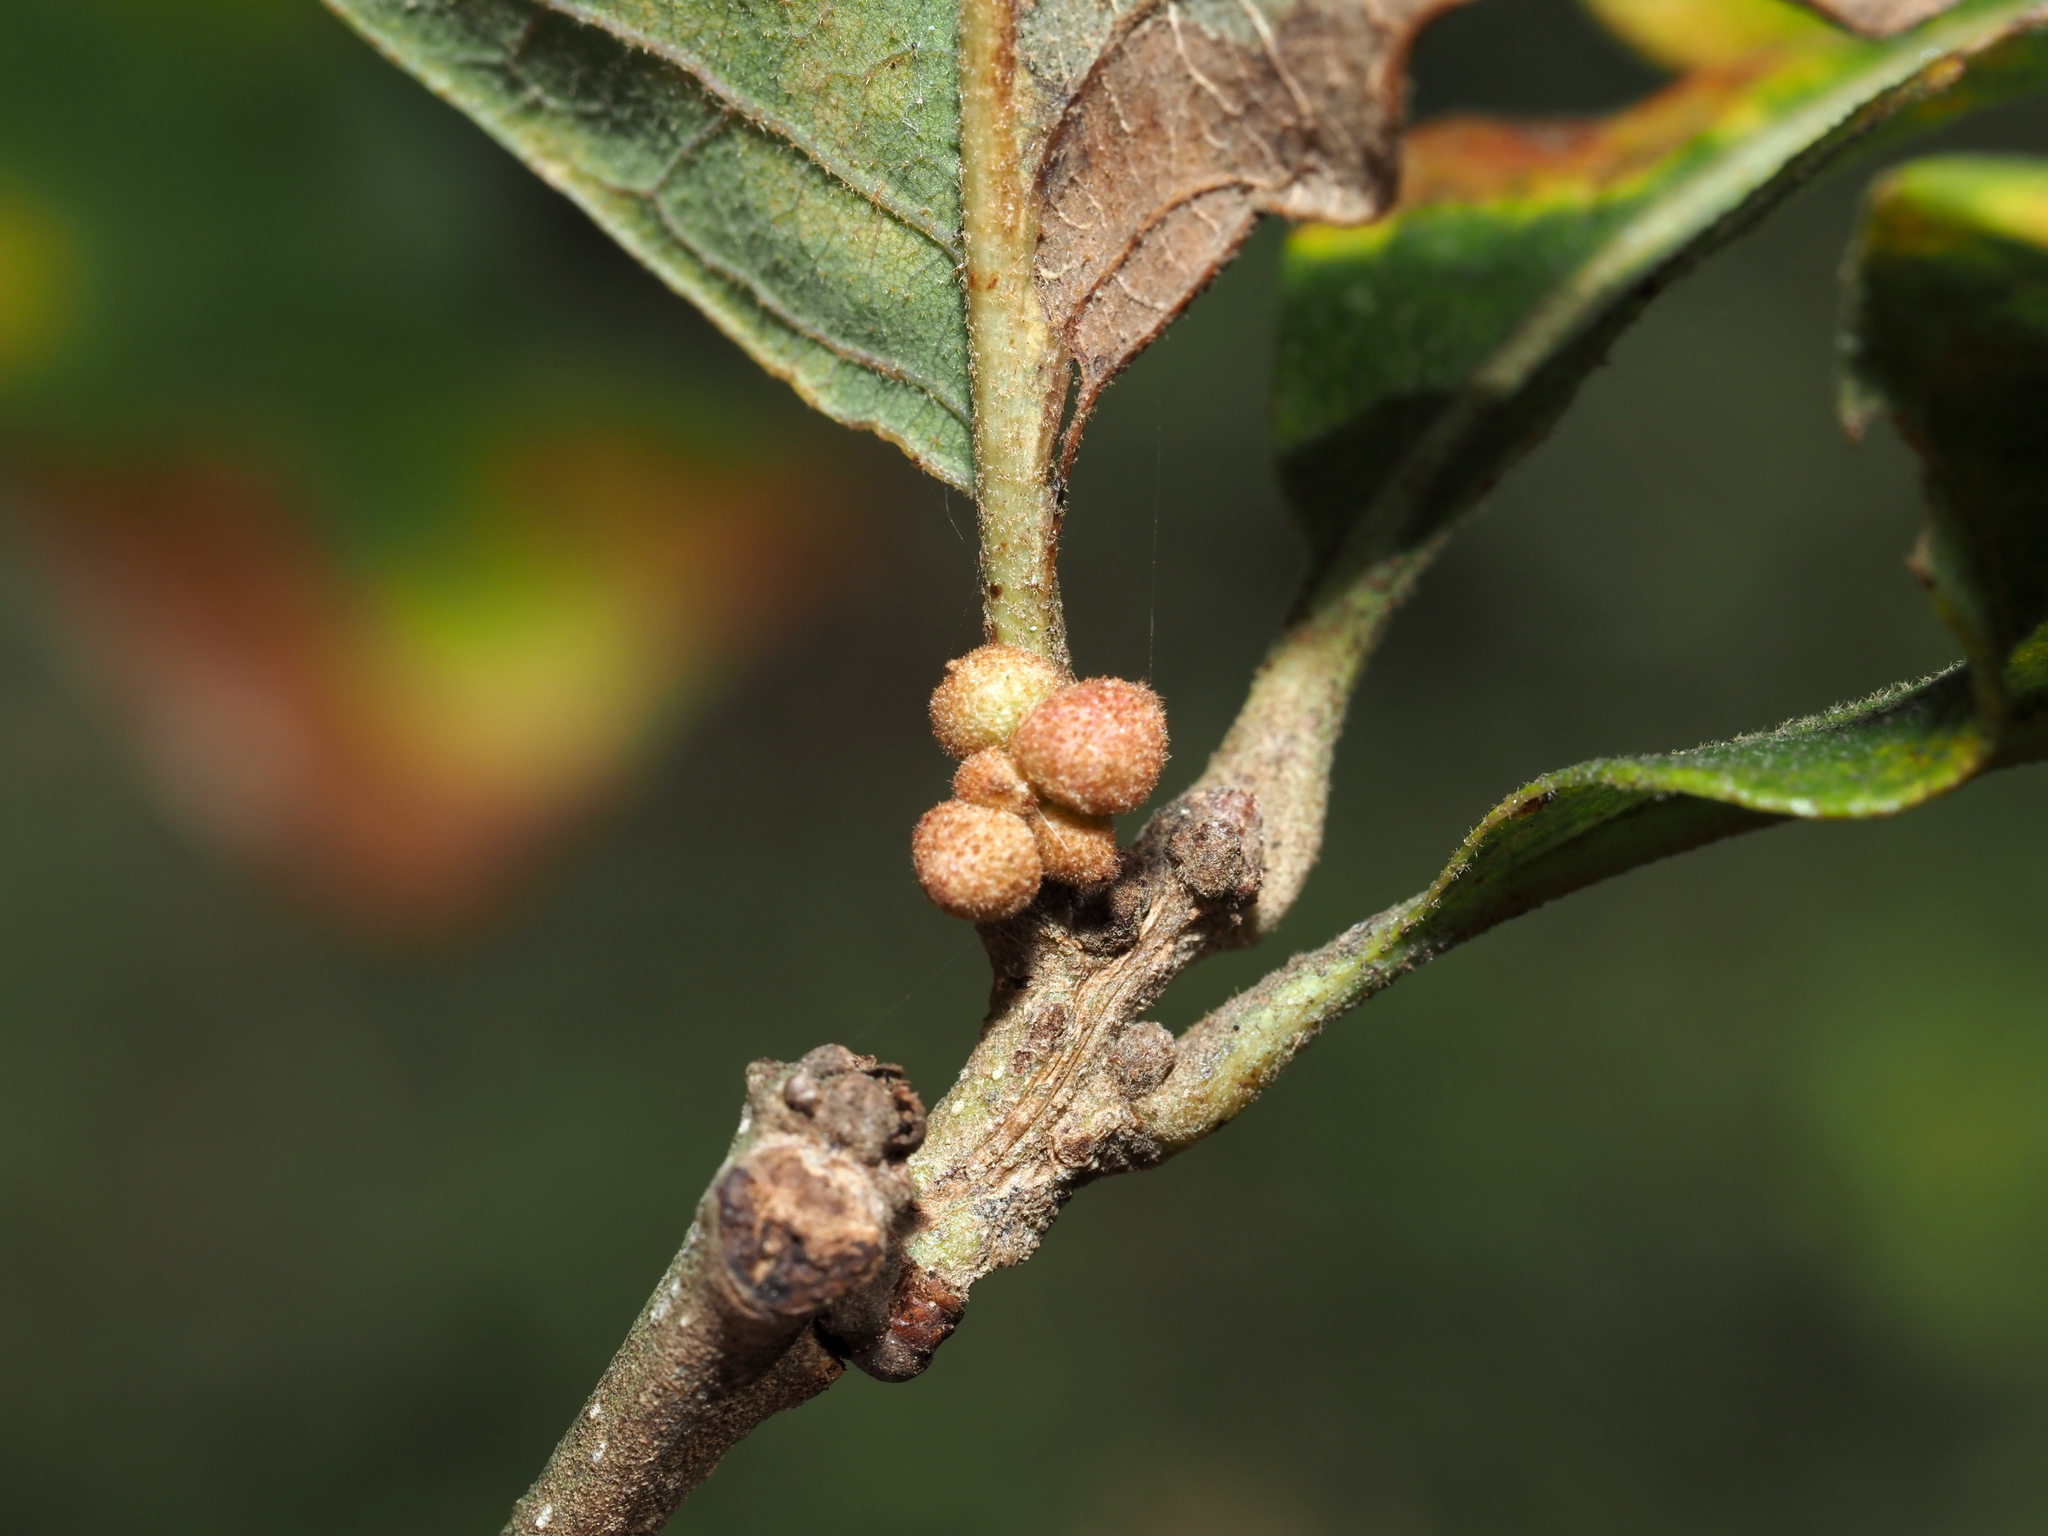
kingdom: Animalia
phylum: Arthropoda
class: Insecta
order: Hymenoptera
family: Cynipidae
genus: Andricus
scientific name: Andricus
